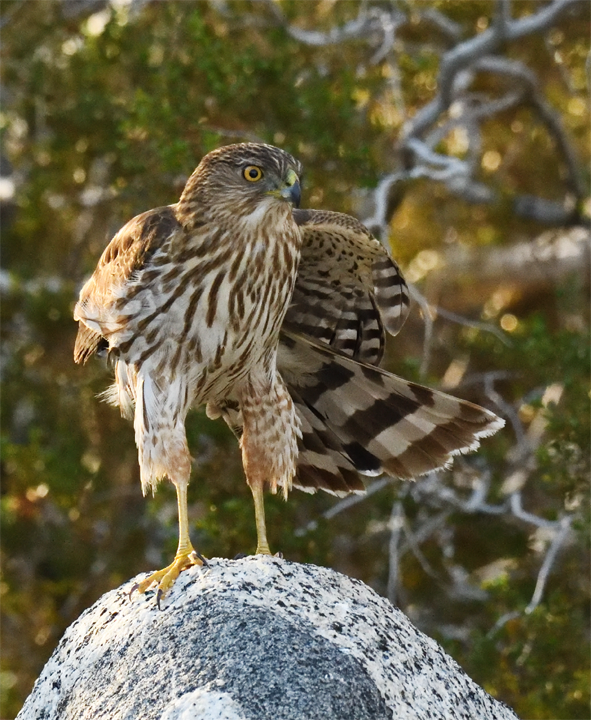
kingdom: Animalia
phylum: Chordata
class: Aves
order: Accipitriformes
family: Accipitridae
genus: Accipiter
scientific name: Accipiter cooperii
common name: Cooper's hawk
